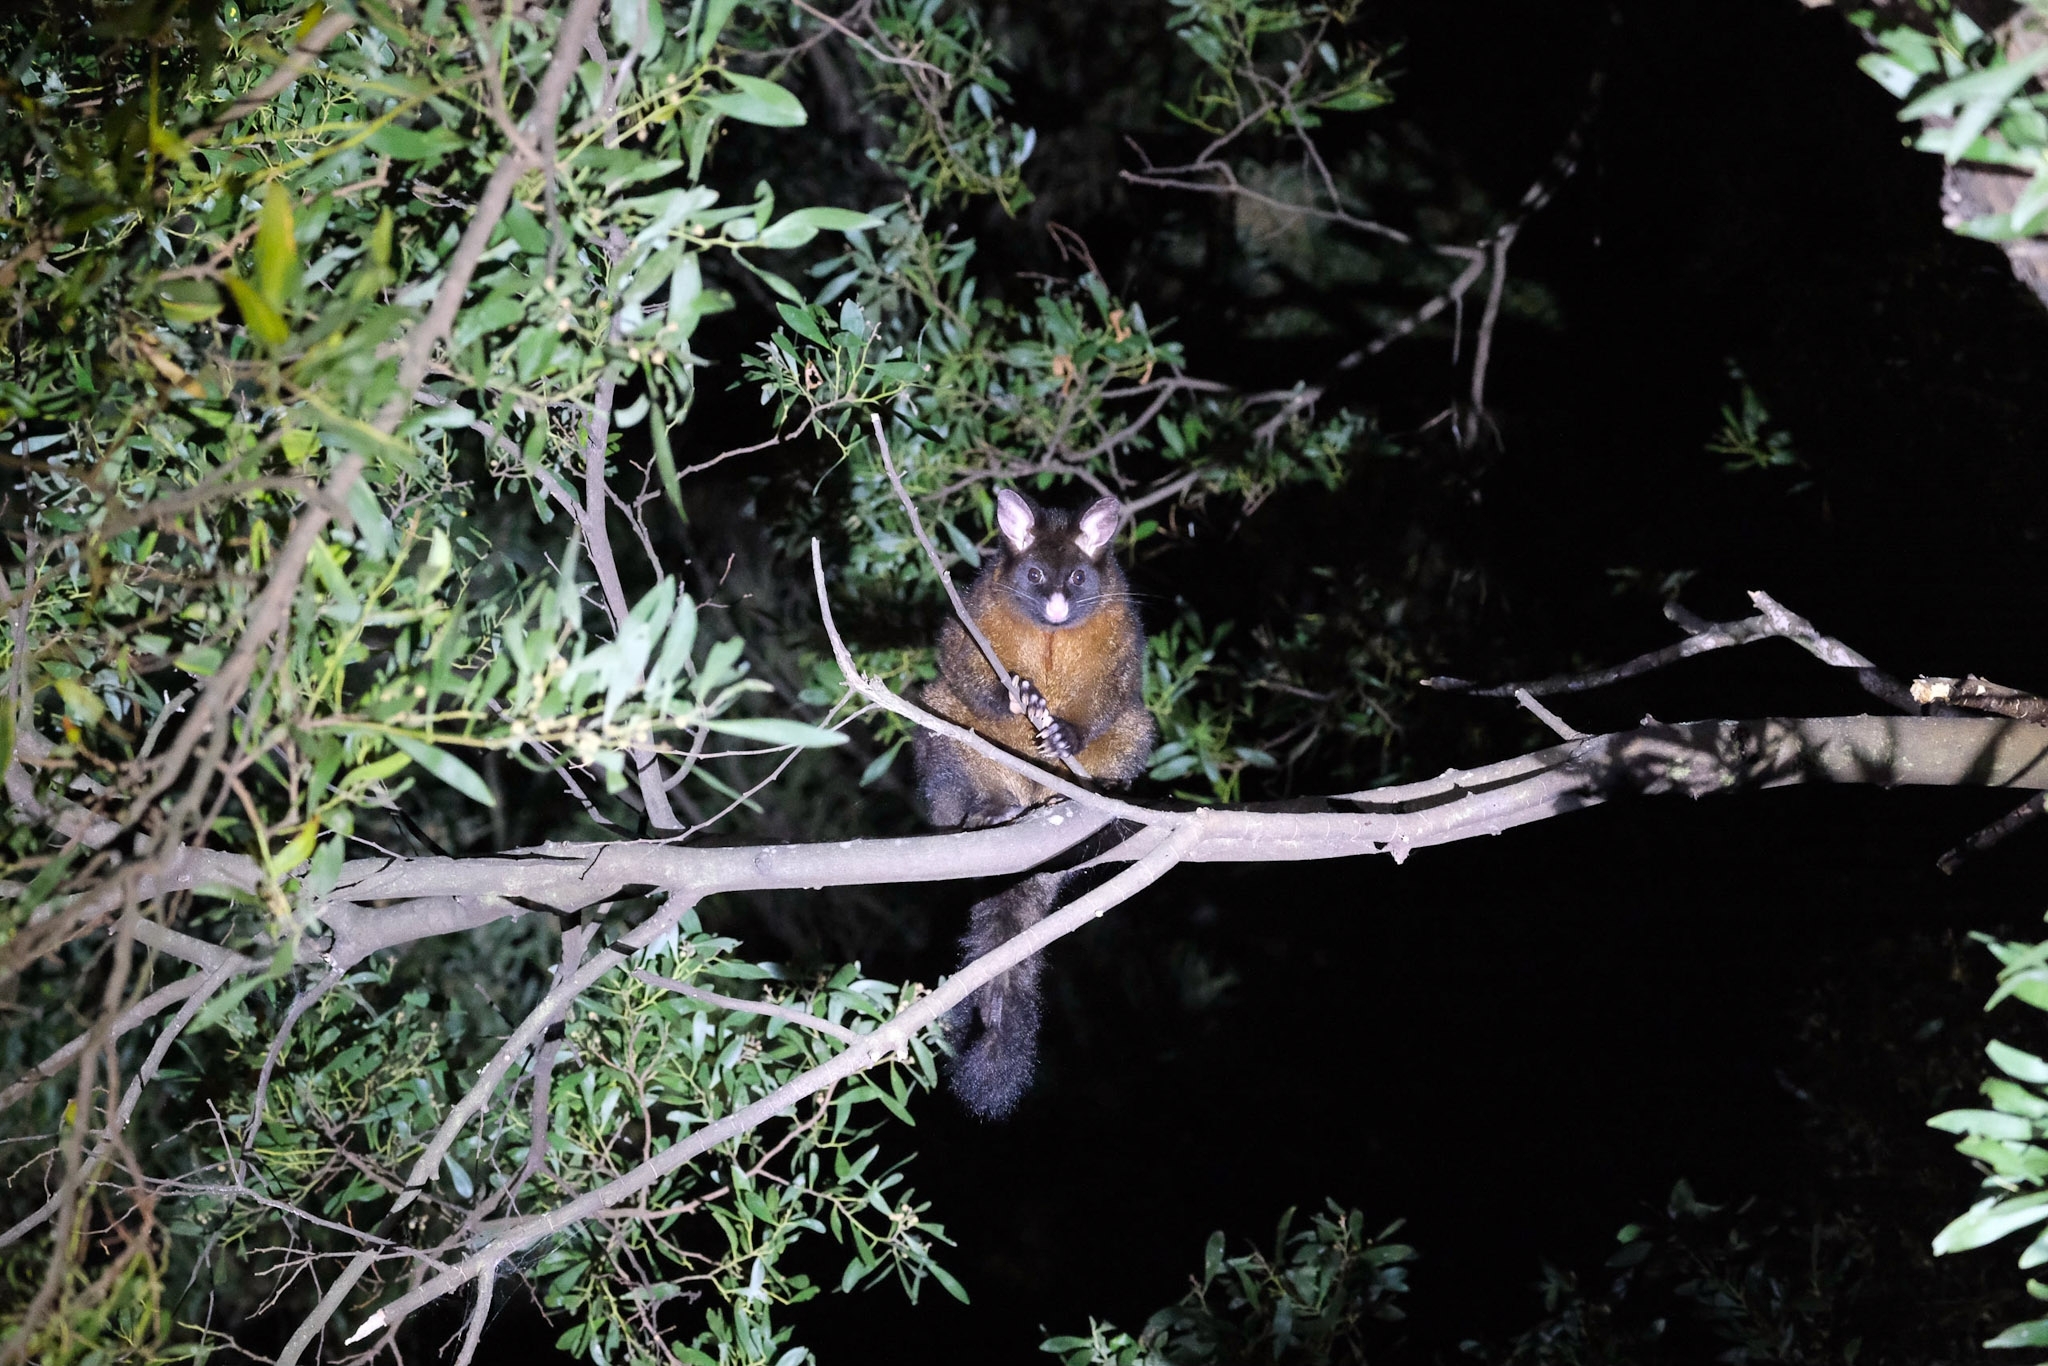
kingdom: Animalia
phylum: Chordata
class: Mammalia
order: Diprotodontia
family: Phalangeridae
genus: Trichosurus
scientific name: Trichosurus vulpecula
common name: Common brushtail
